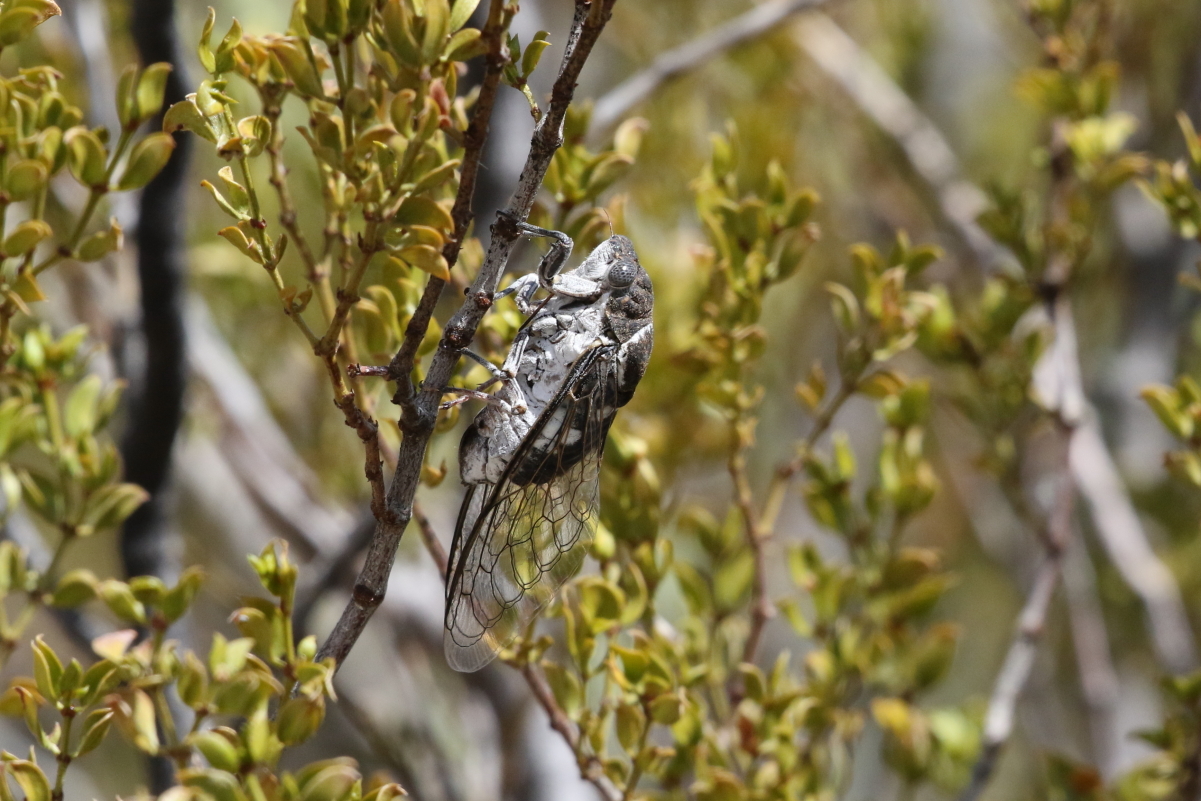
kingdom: Animalia
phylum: Arthropoda
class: Insecta
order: Hemiptera
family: Cicadidae
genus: Cacama
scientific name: Cacama valvata
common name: Cactus dodger
